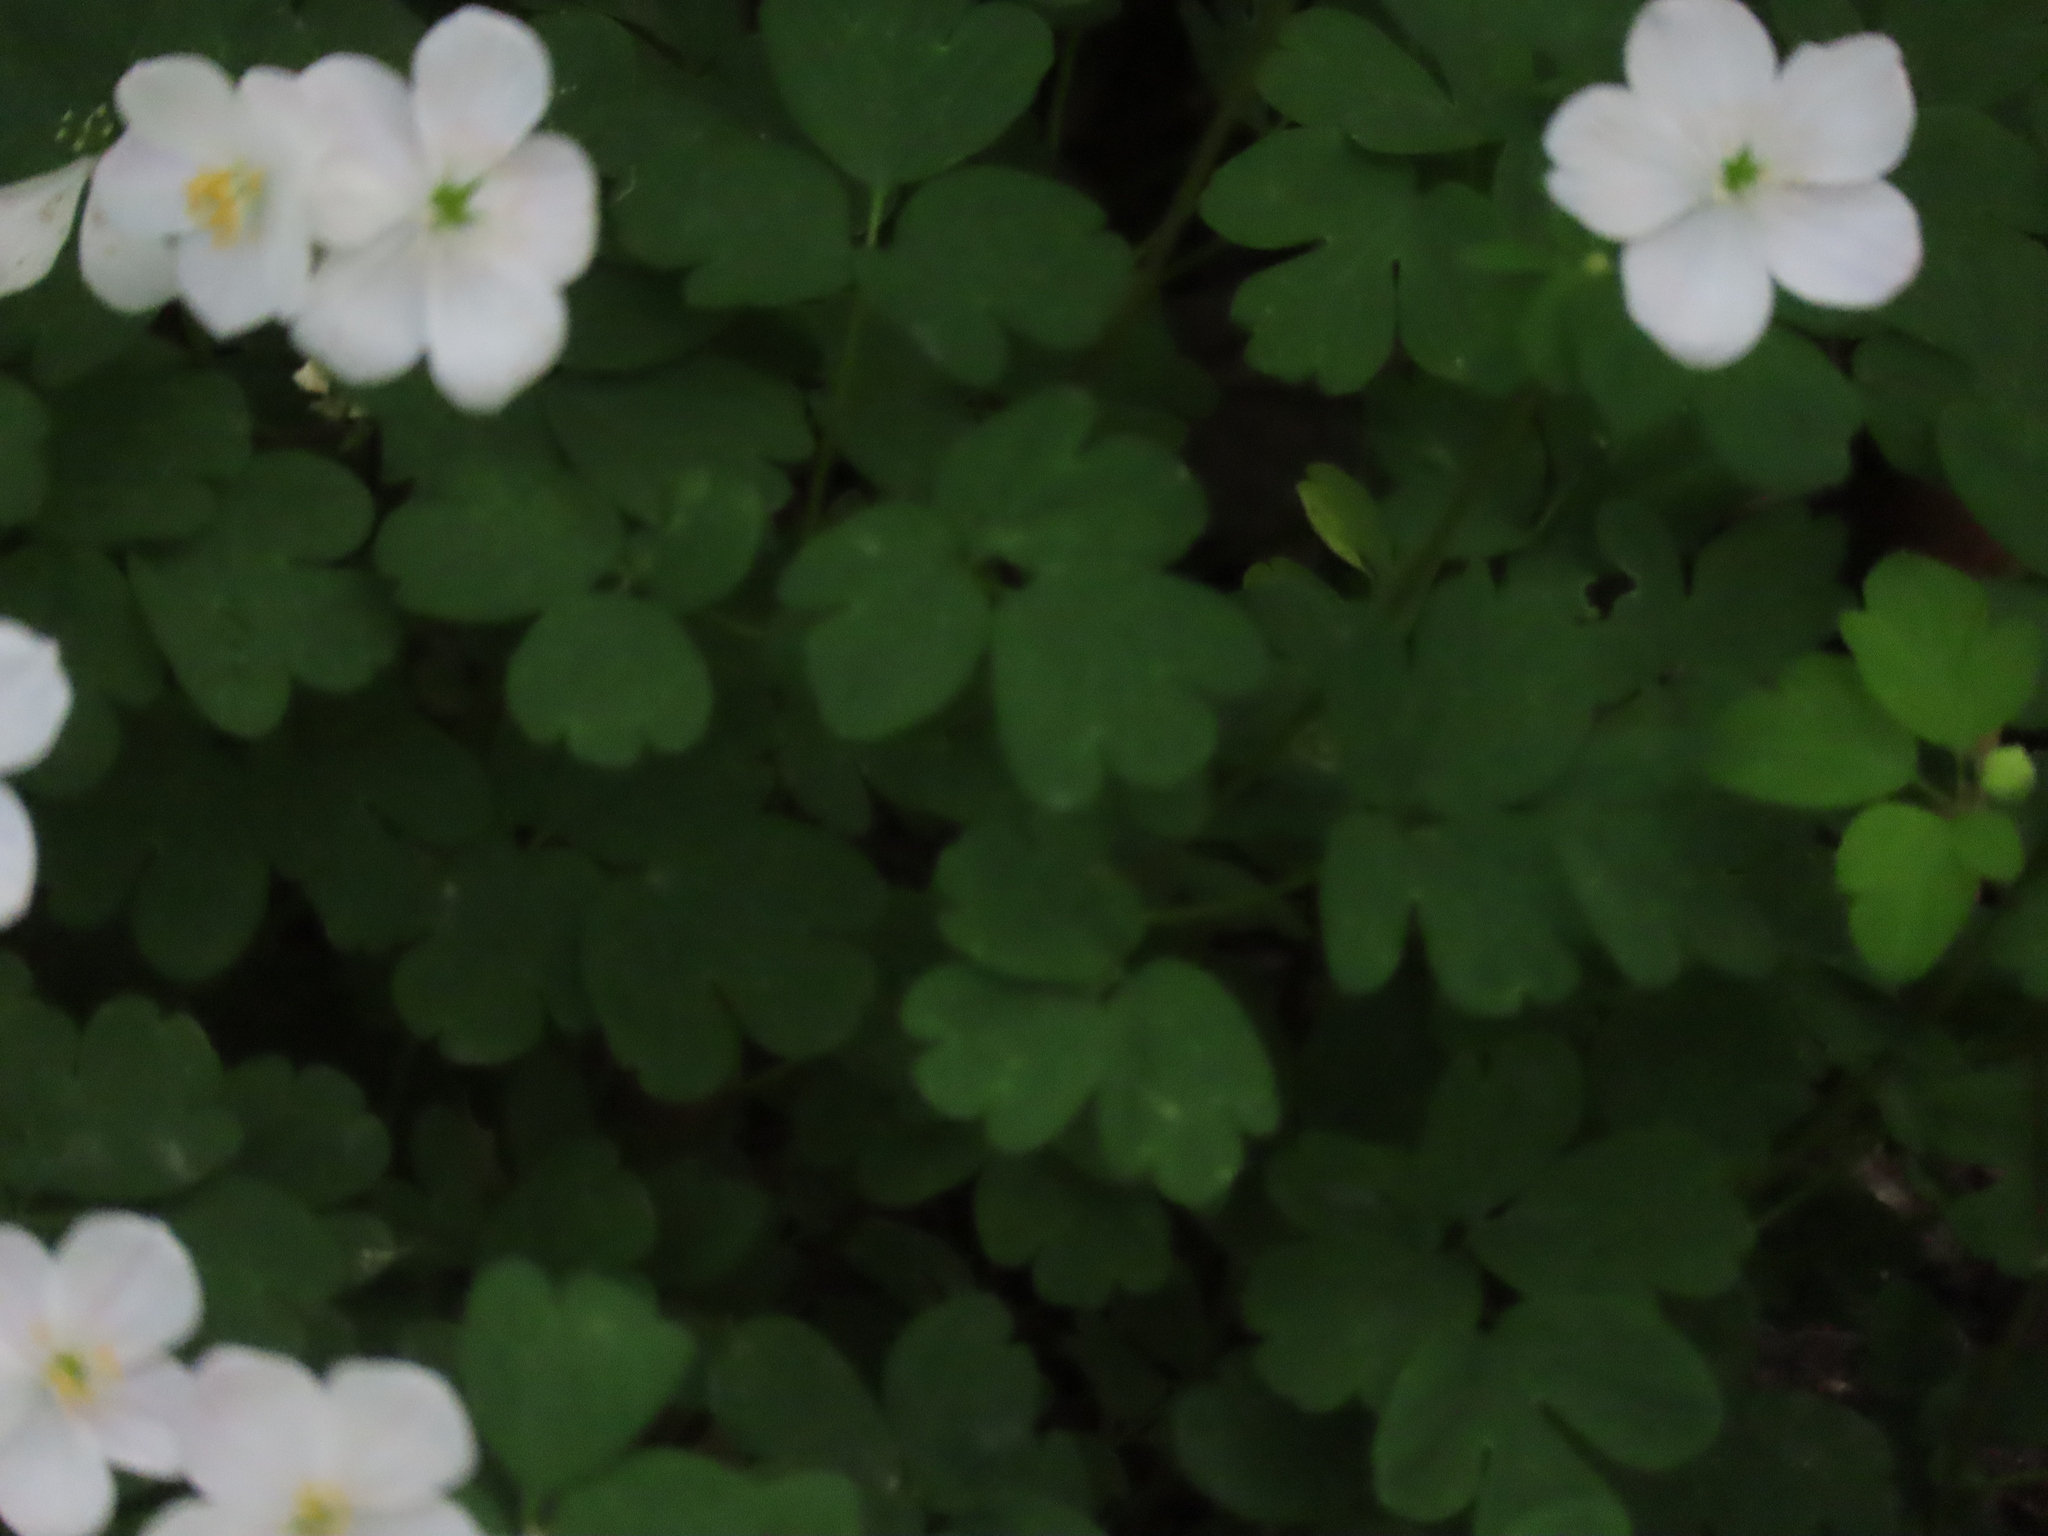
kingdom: Plantae
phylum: Tracheophyta
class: Magnoliopsida
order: Ranunculales
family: Ranunculaceae
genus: Enemion
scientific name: Enemion biternatum
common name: Eastern false rue-anemone
